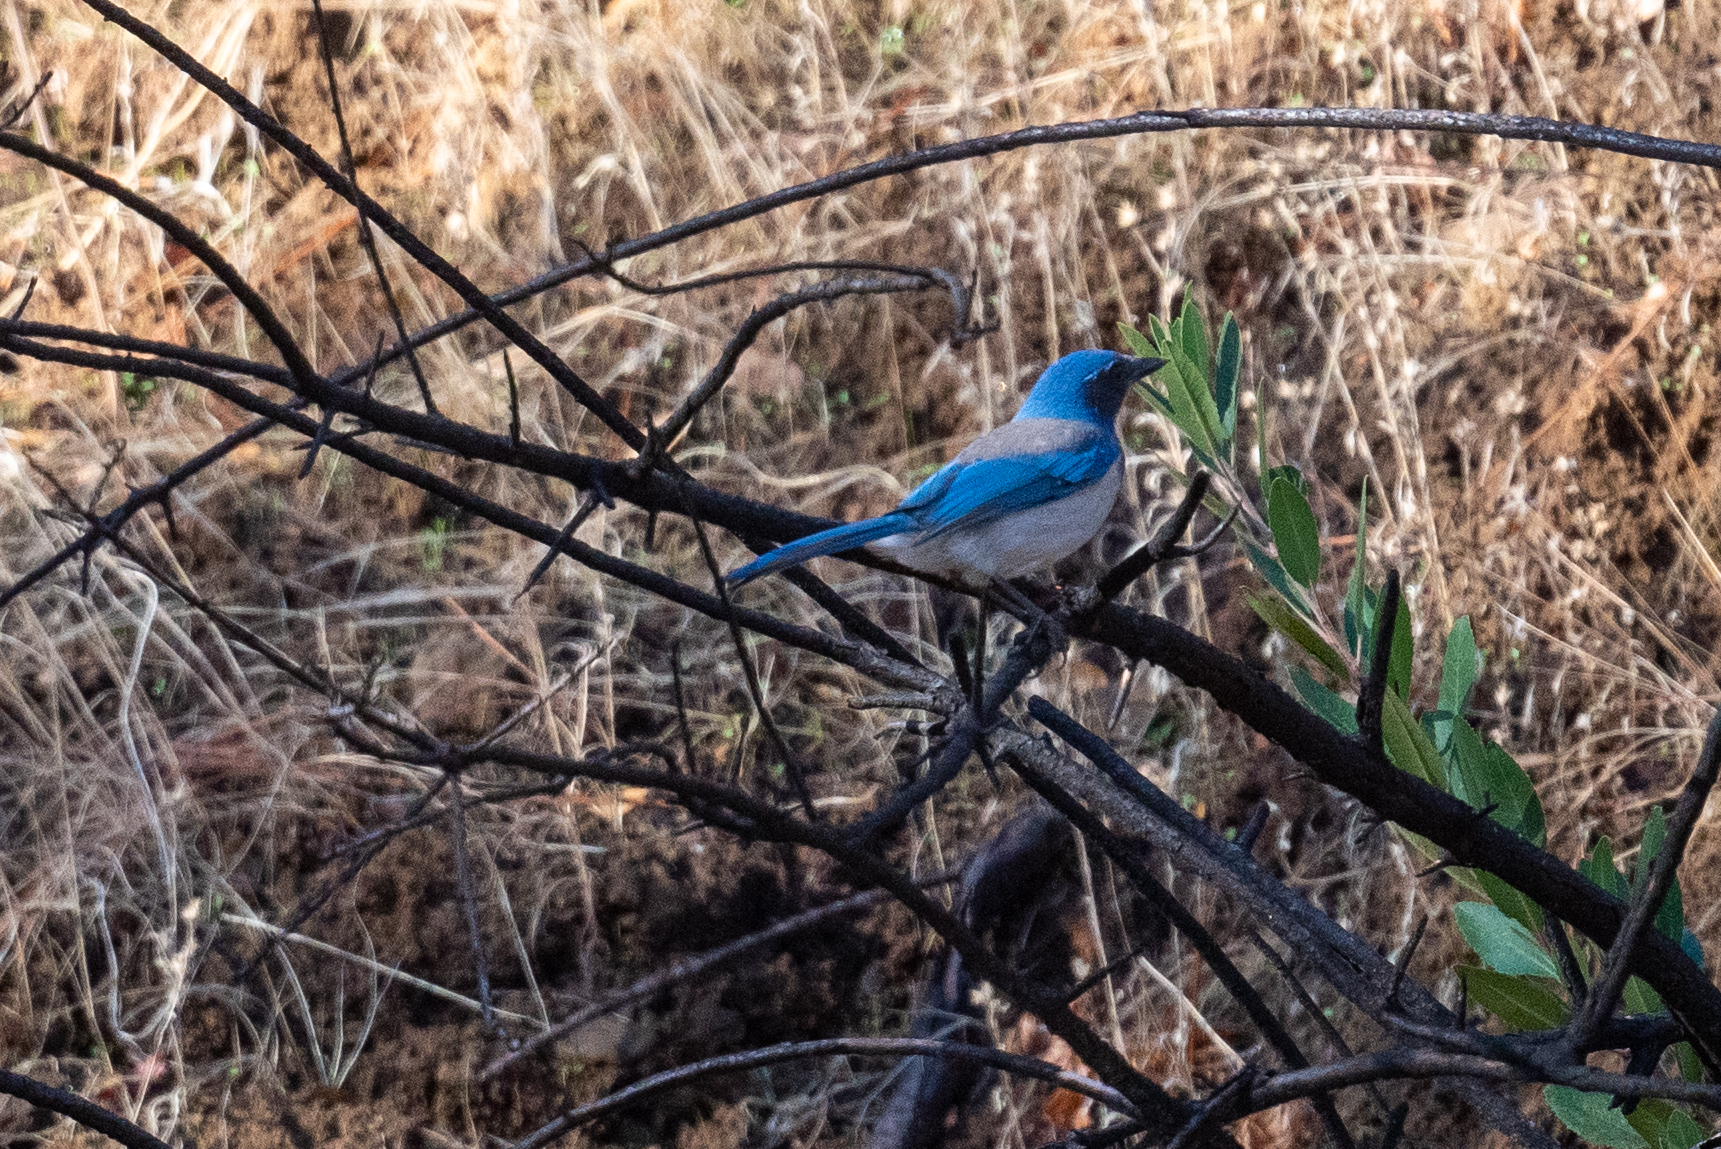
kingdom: Animalia
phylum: Chordata
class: Aves
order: Passeriformes
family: Corvidae
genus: Aphelocoma
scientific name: Aphelocoma californica
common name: California scrub-jay
